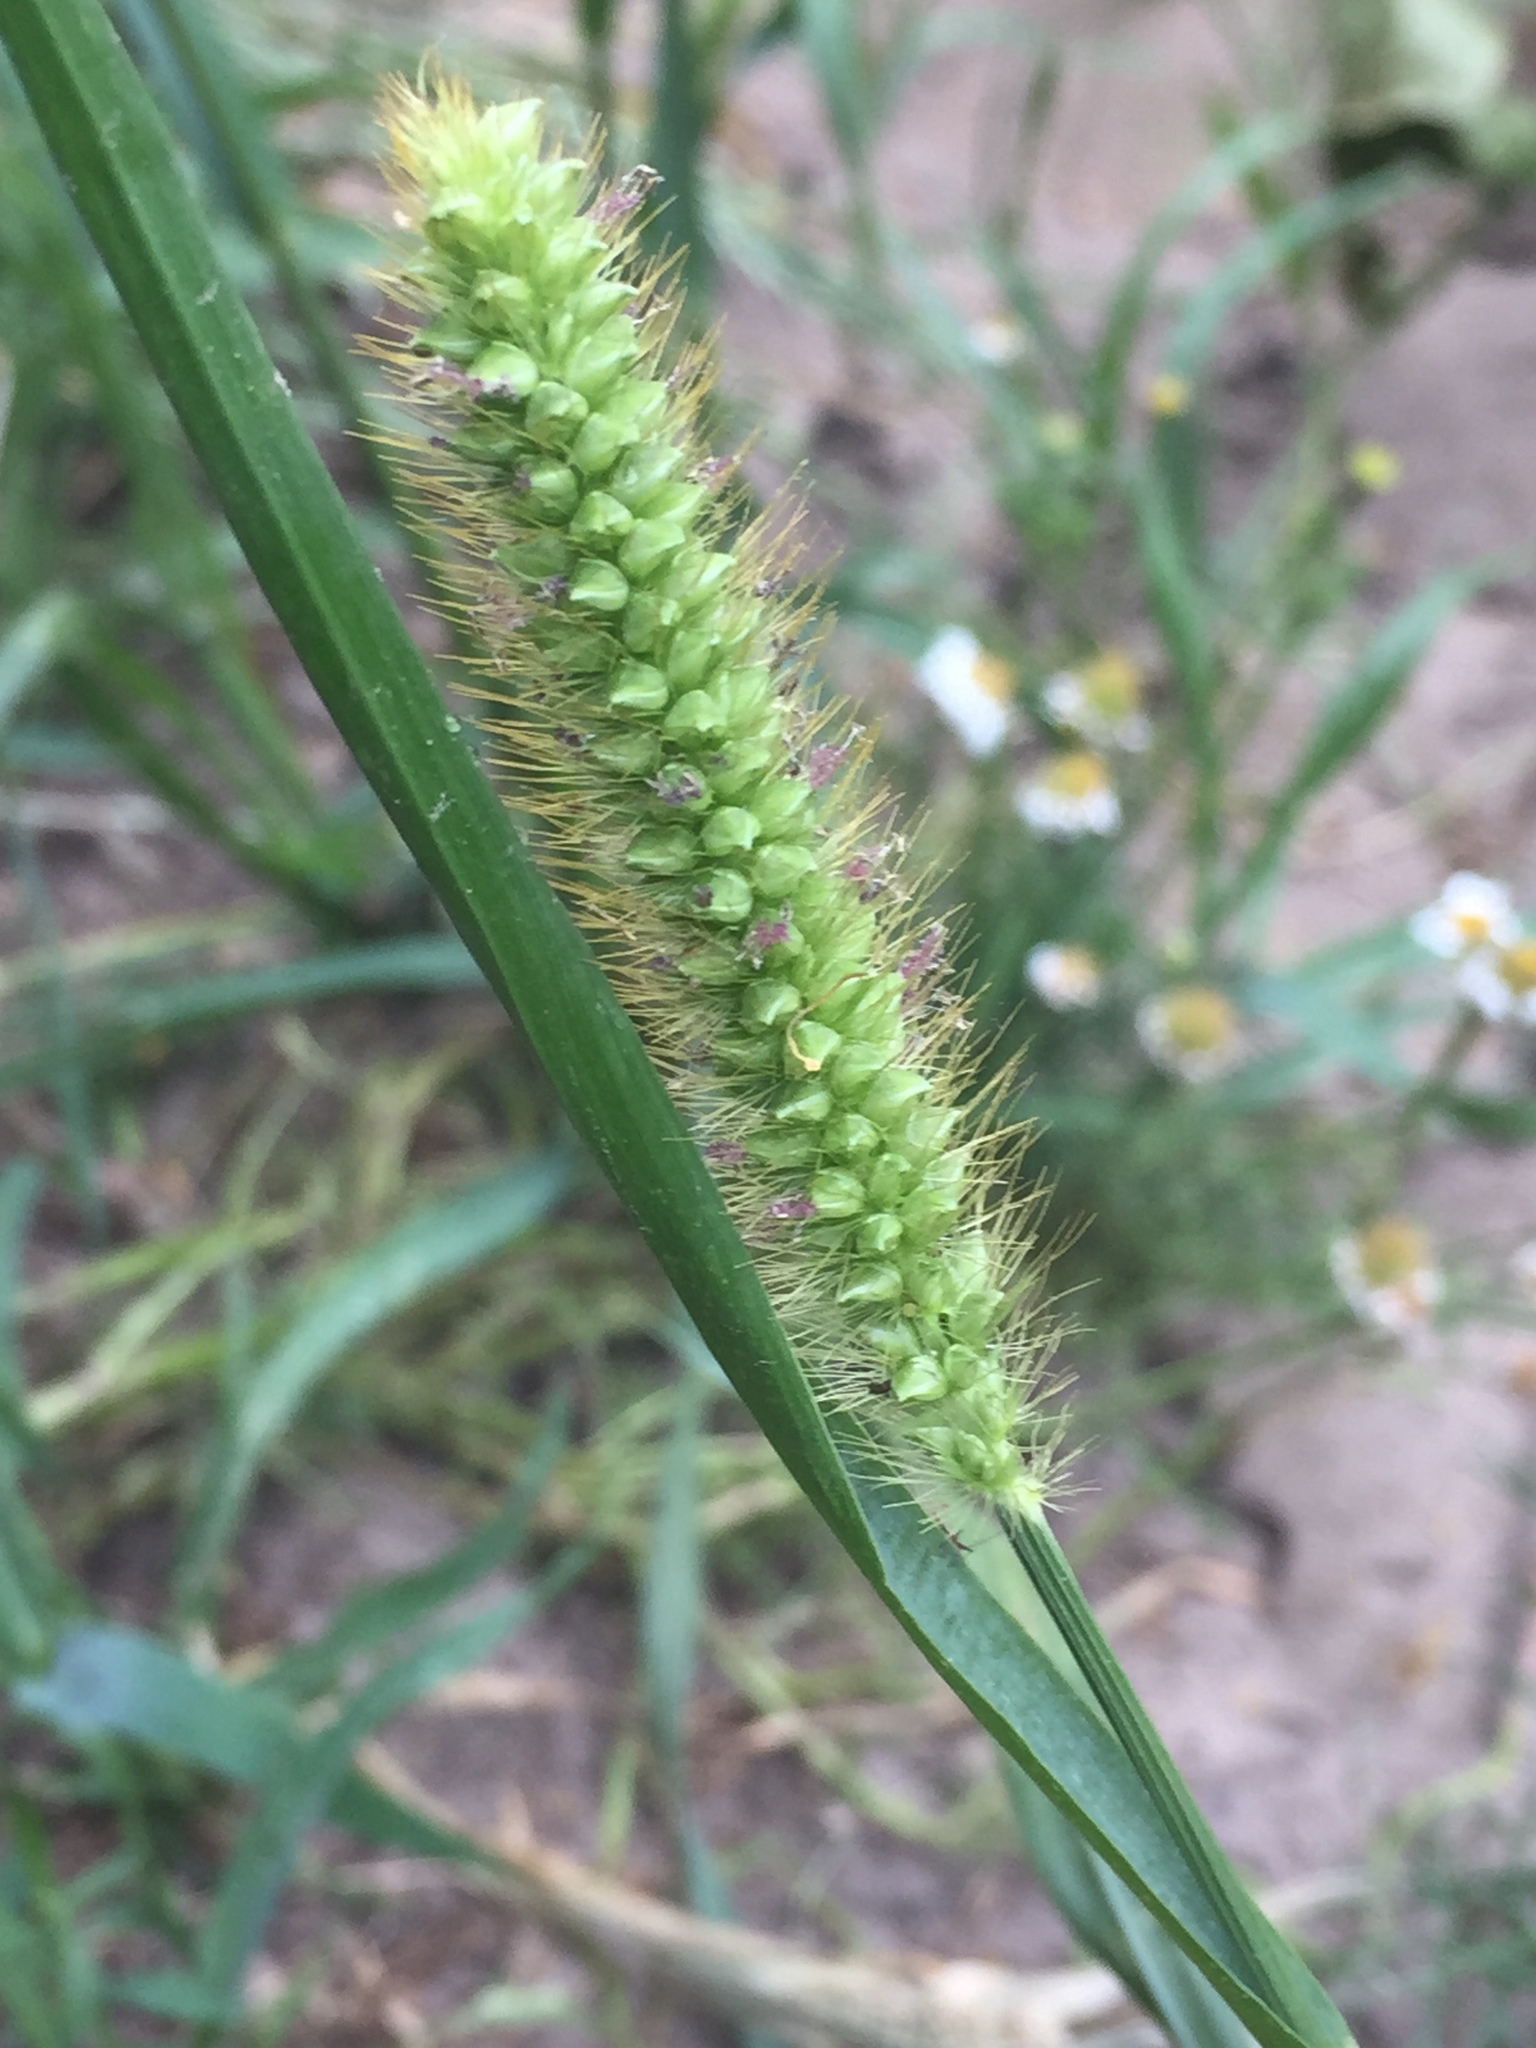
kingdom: Plantae
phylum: Tracheophyta
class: Liliopsida
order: Poales
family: Poaceae
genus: Setaria
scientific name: Setaria pumila
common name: Yellow bristle-grass
